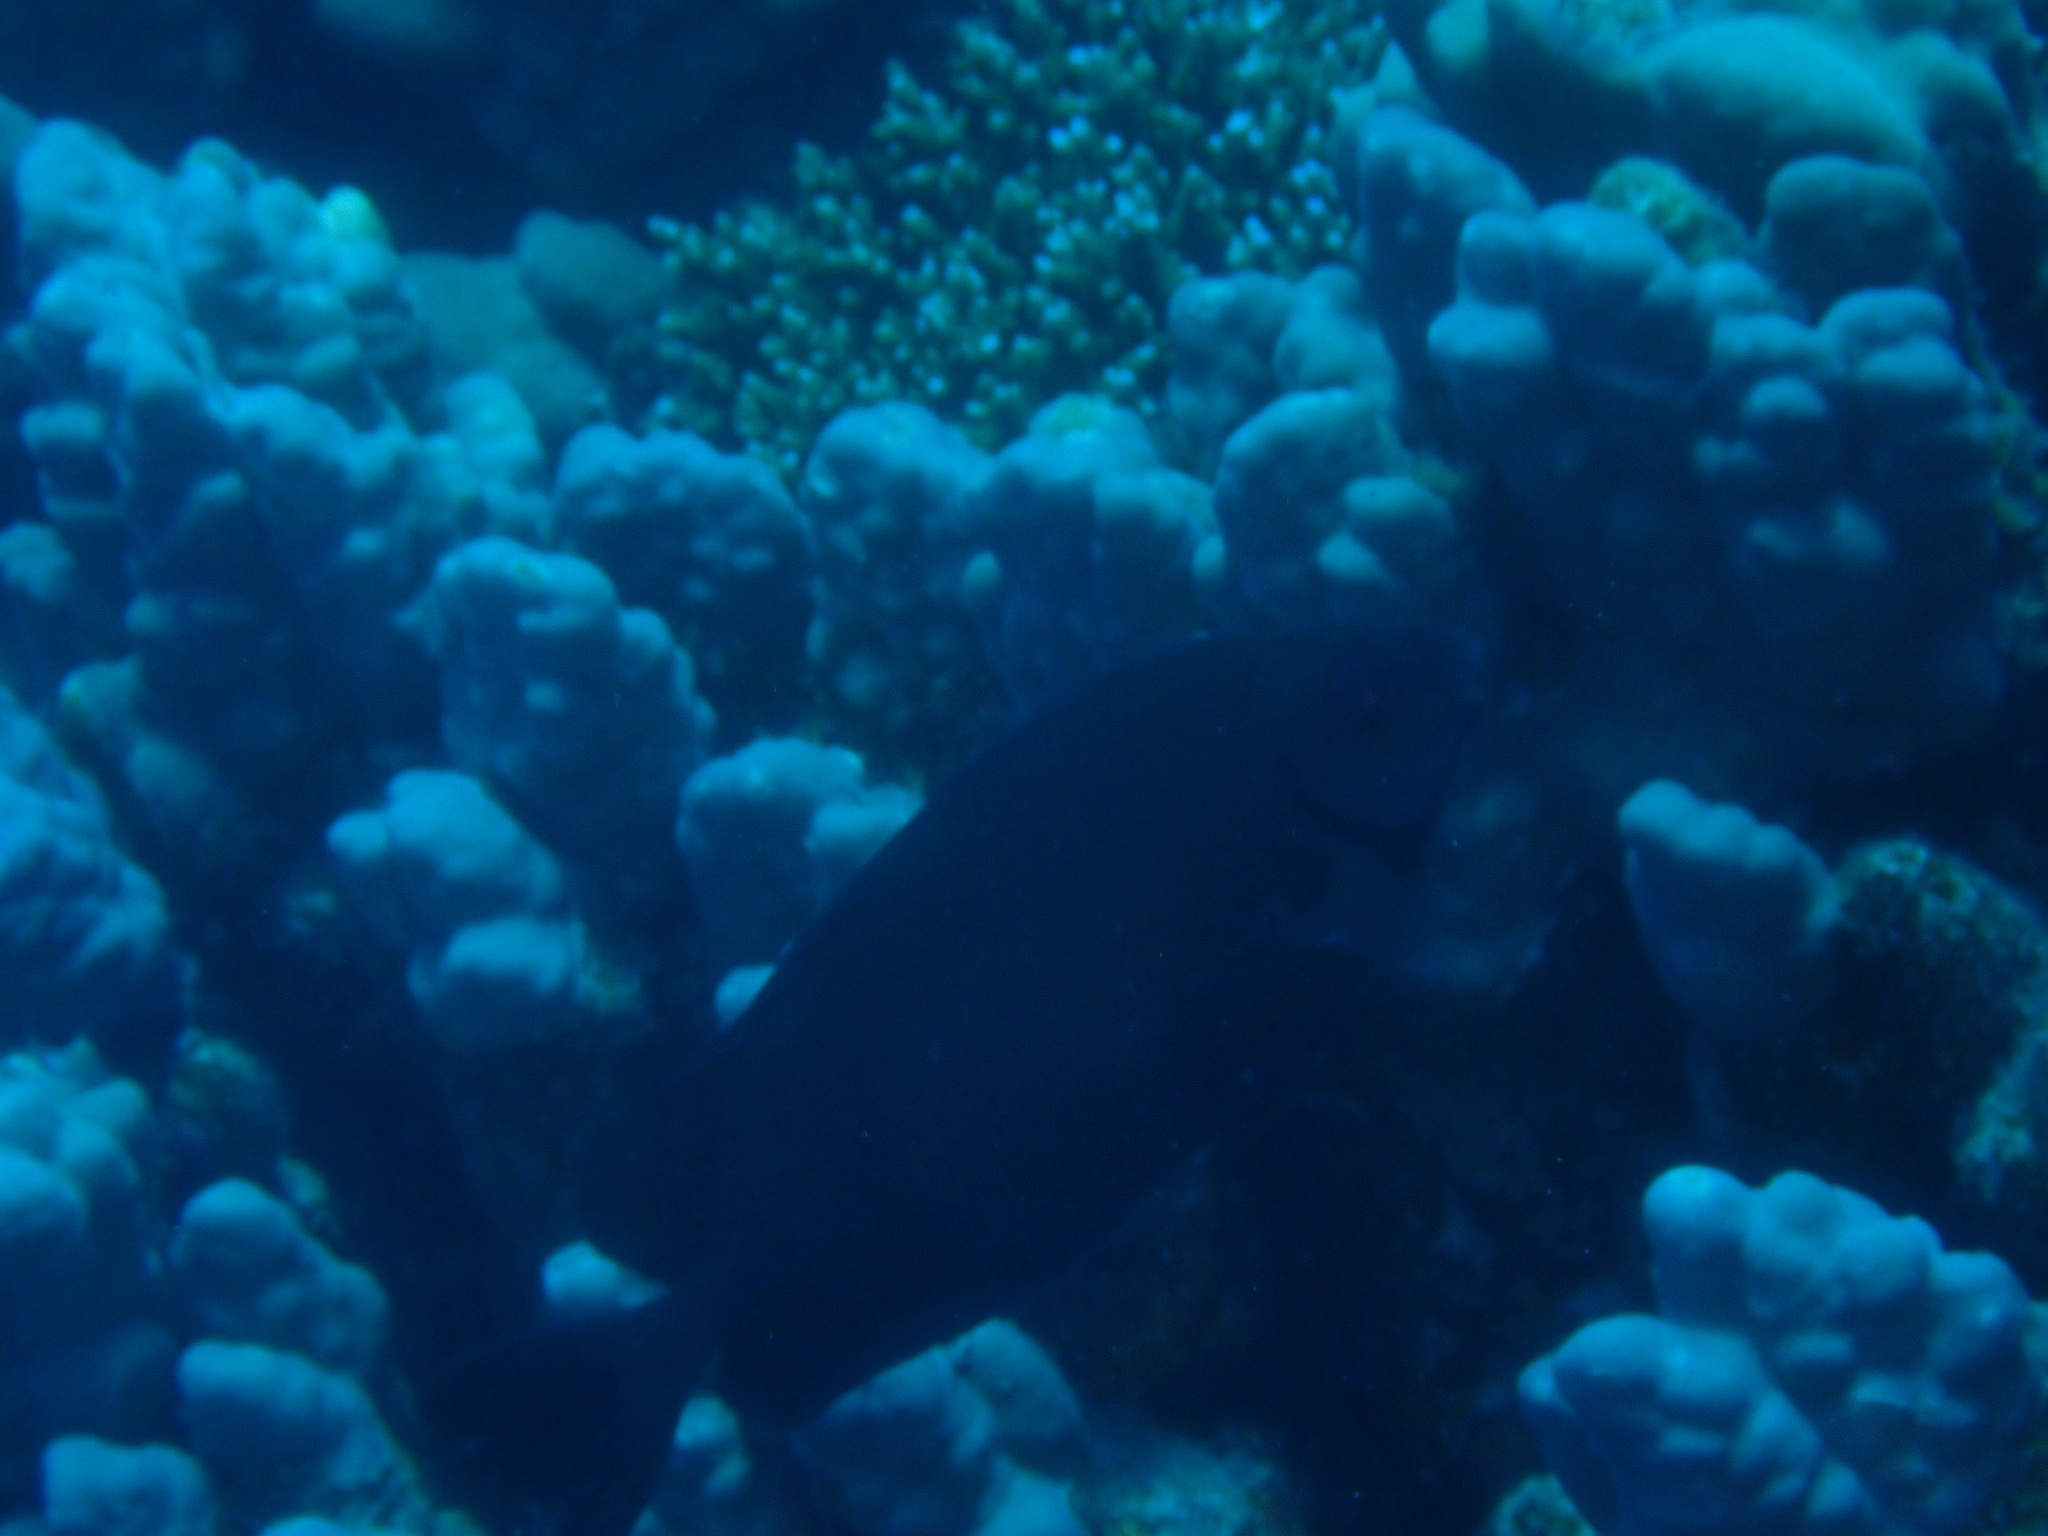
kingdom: Animalia
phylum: Chordata
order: Perciformes
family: Siganidae
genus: Siganus
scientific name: Siganus luridus
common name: Dusky spinefoot
